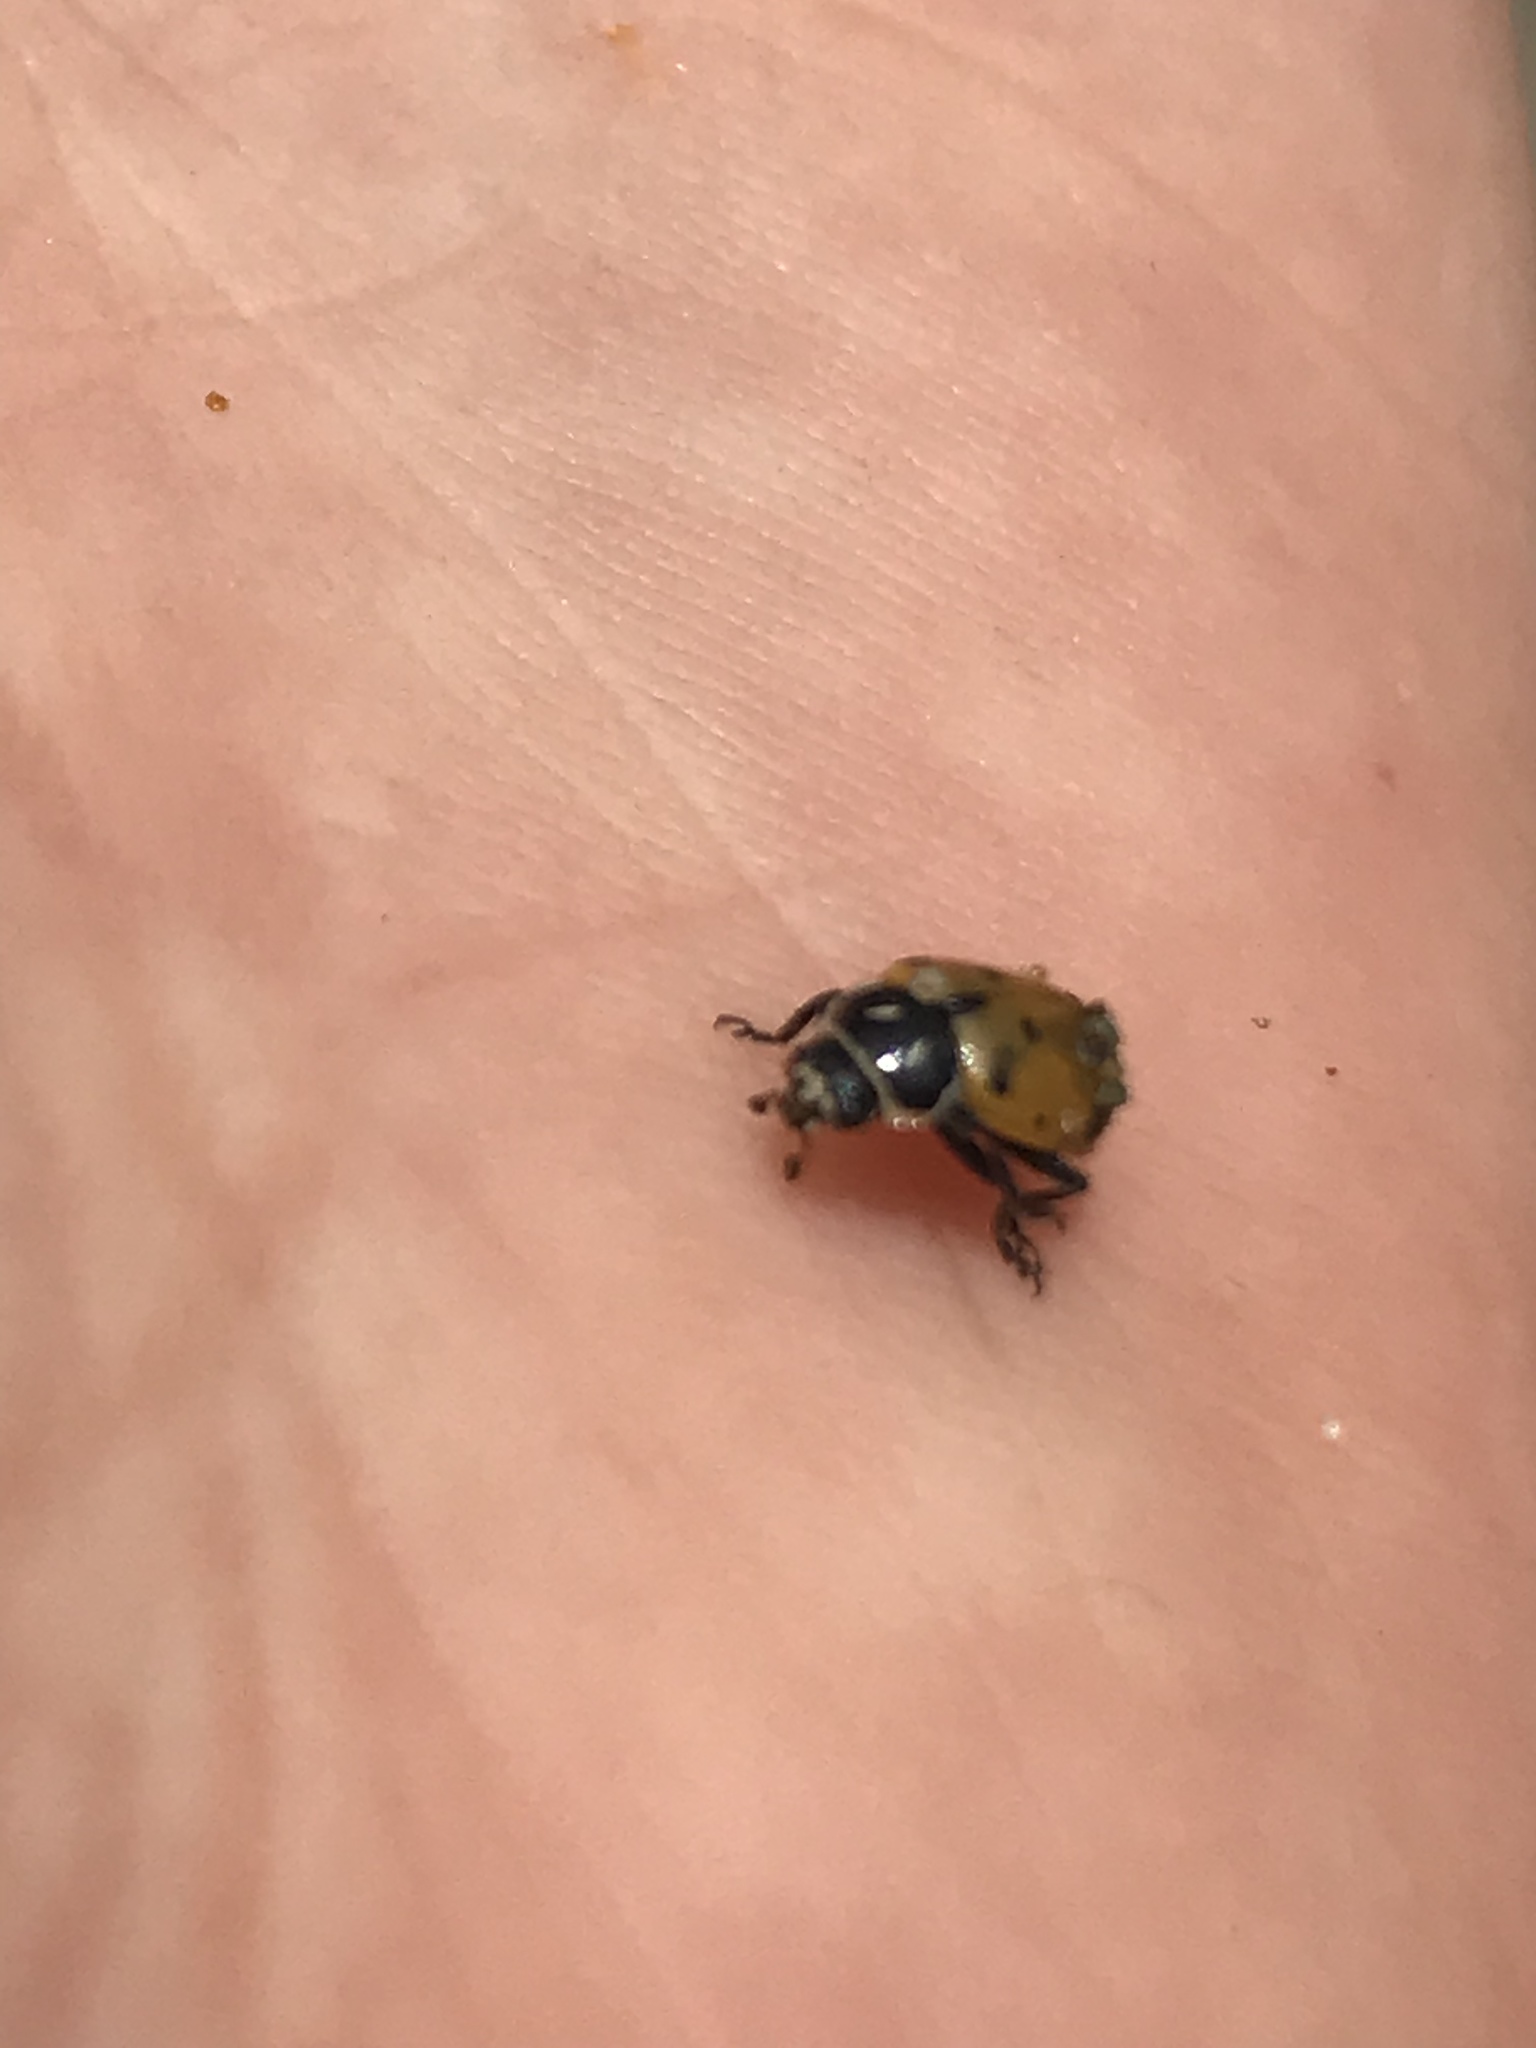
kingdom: Animalia
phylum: Arthropoda
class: Insecta
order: Coleoptera
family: Coccinellidae
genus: Hippodamia
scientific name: Hippodamia convergens
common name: Convergent lady beetle
